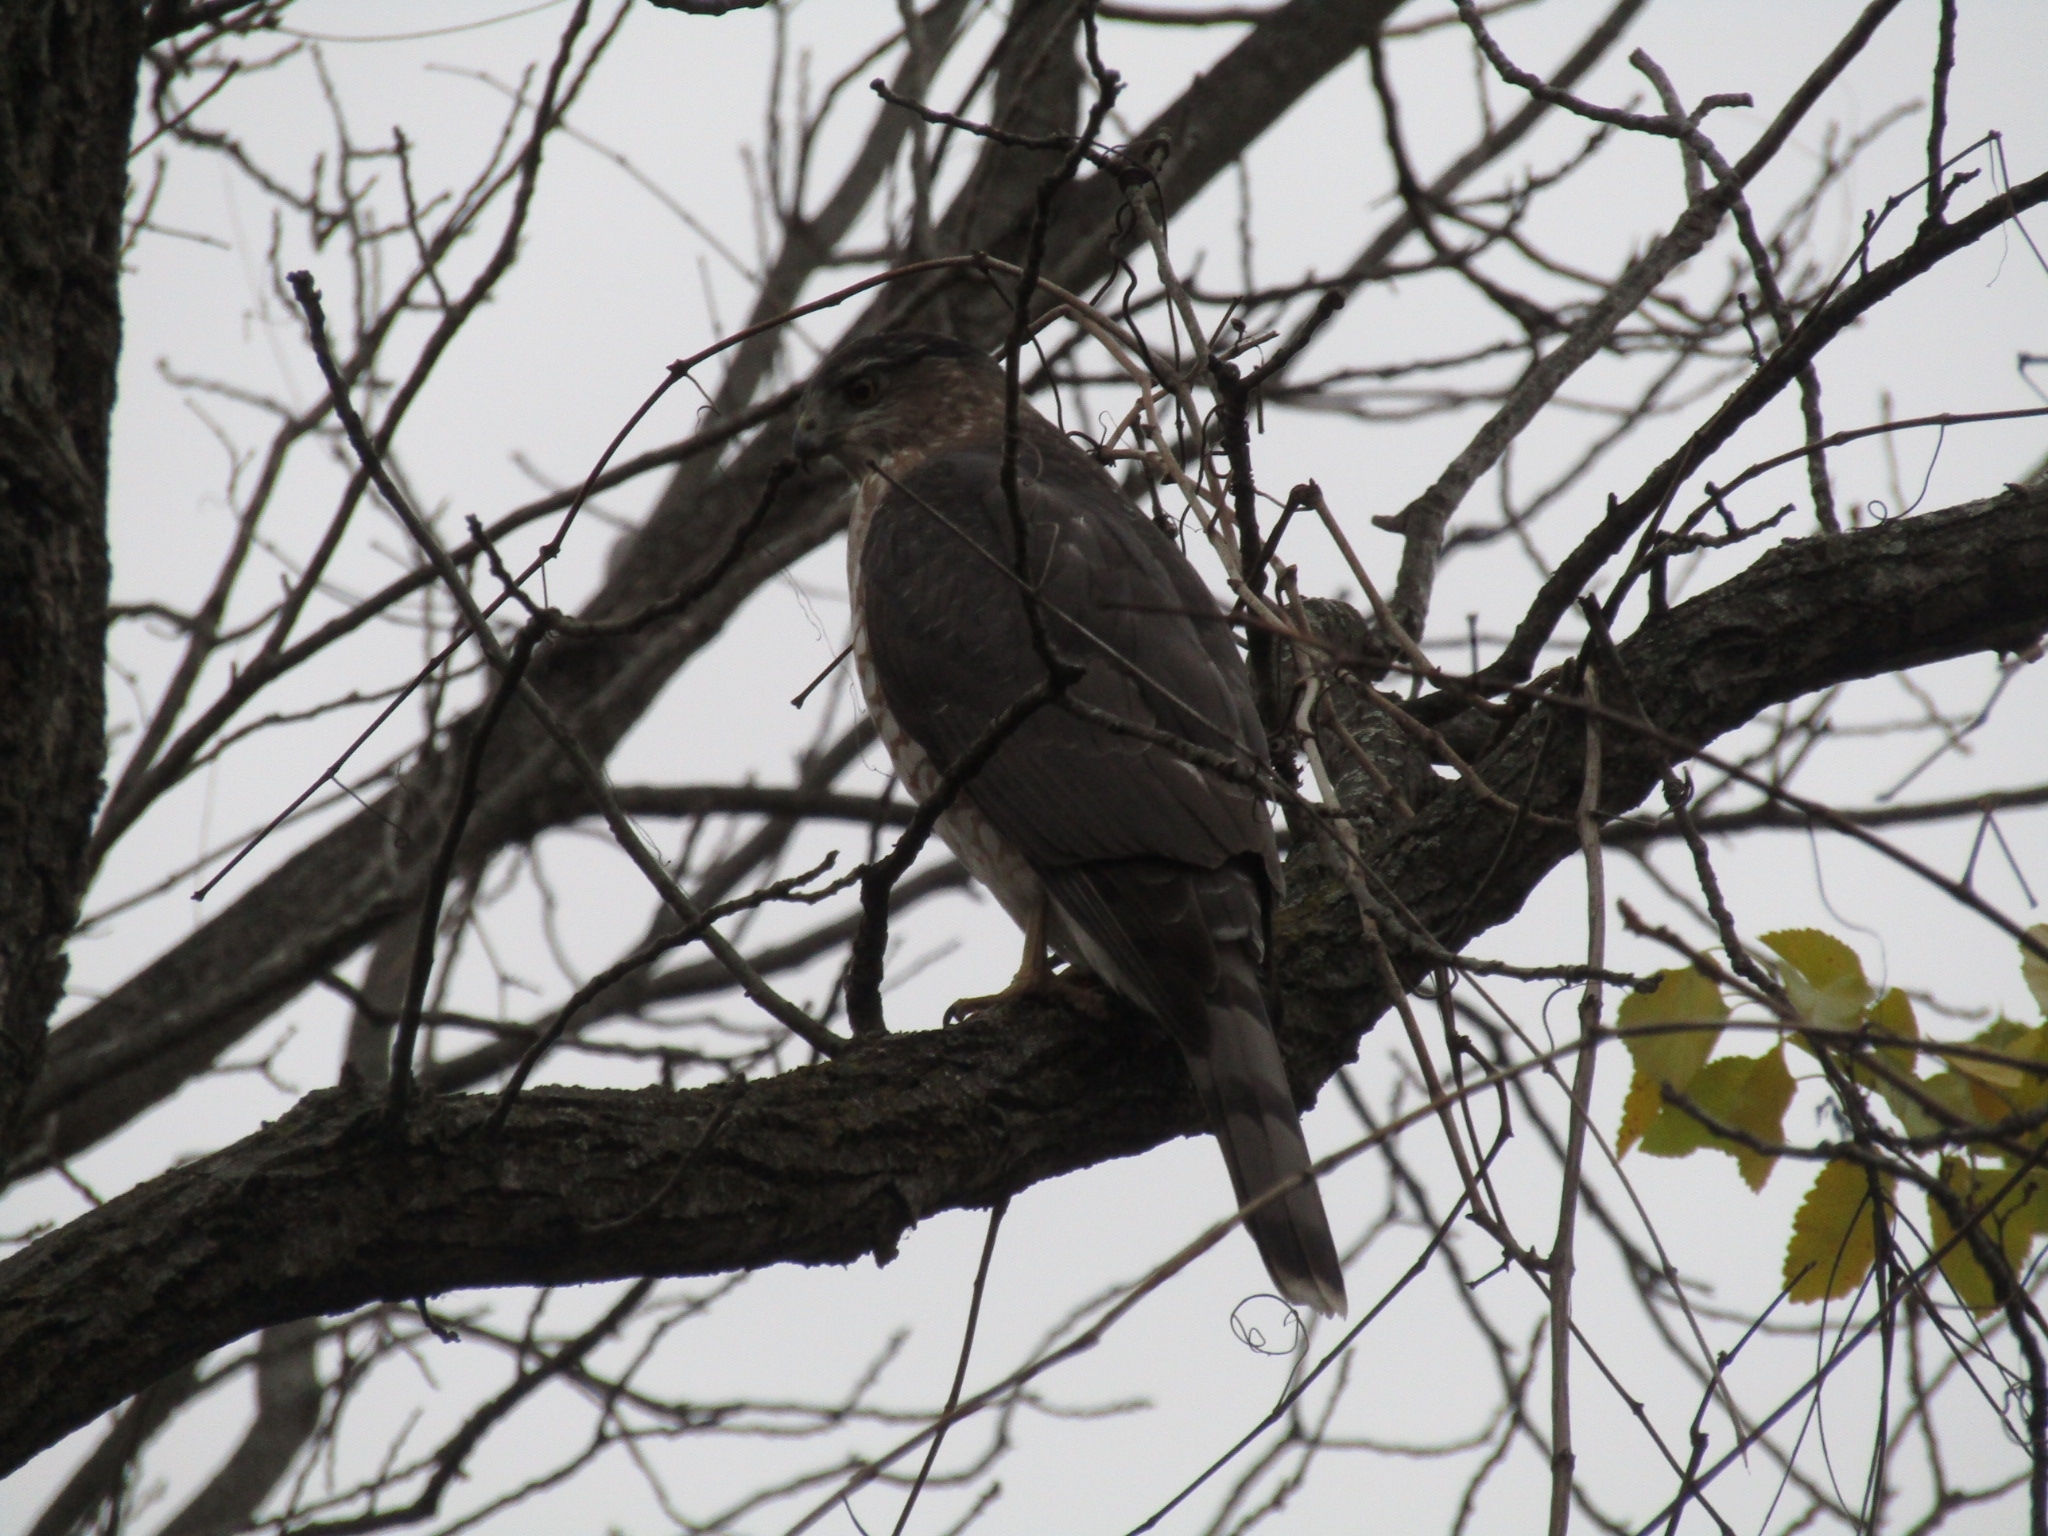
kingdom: Animalia
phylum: Chordata
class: Aves
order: Accipitriformes
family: Accipitridae
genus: Accipiter
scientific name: Accipiter cooperii
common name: Cooper's hawk
